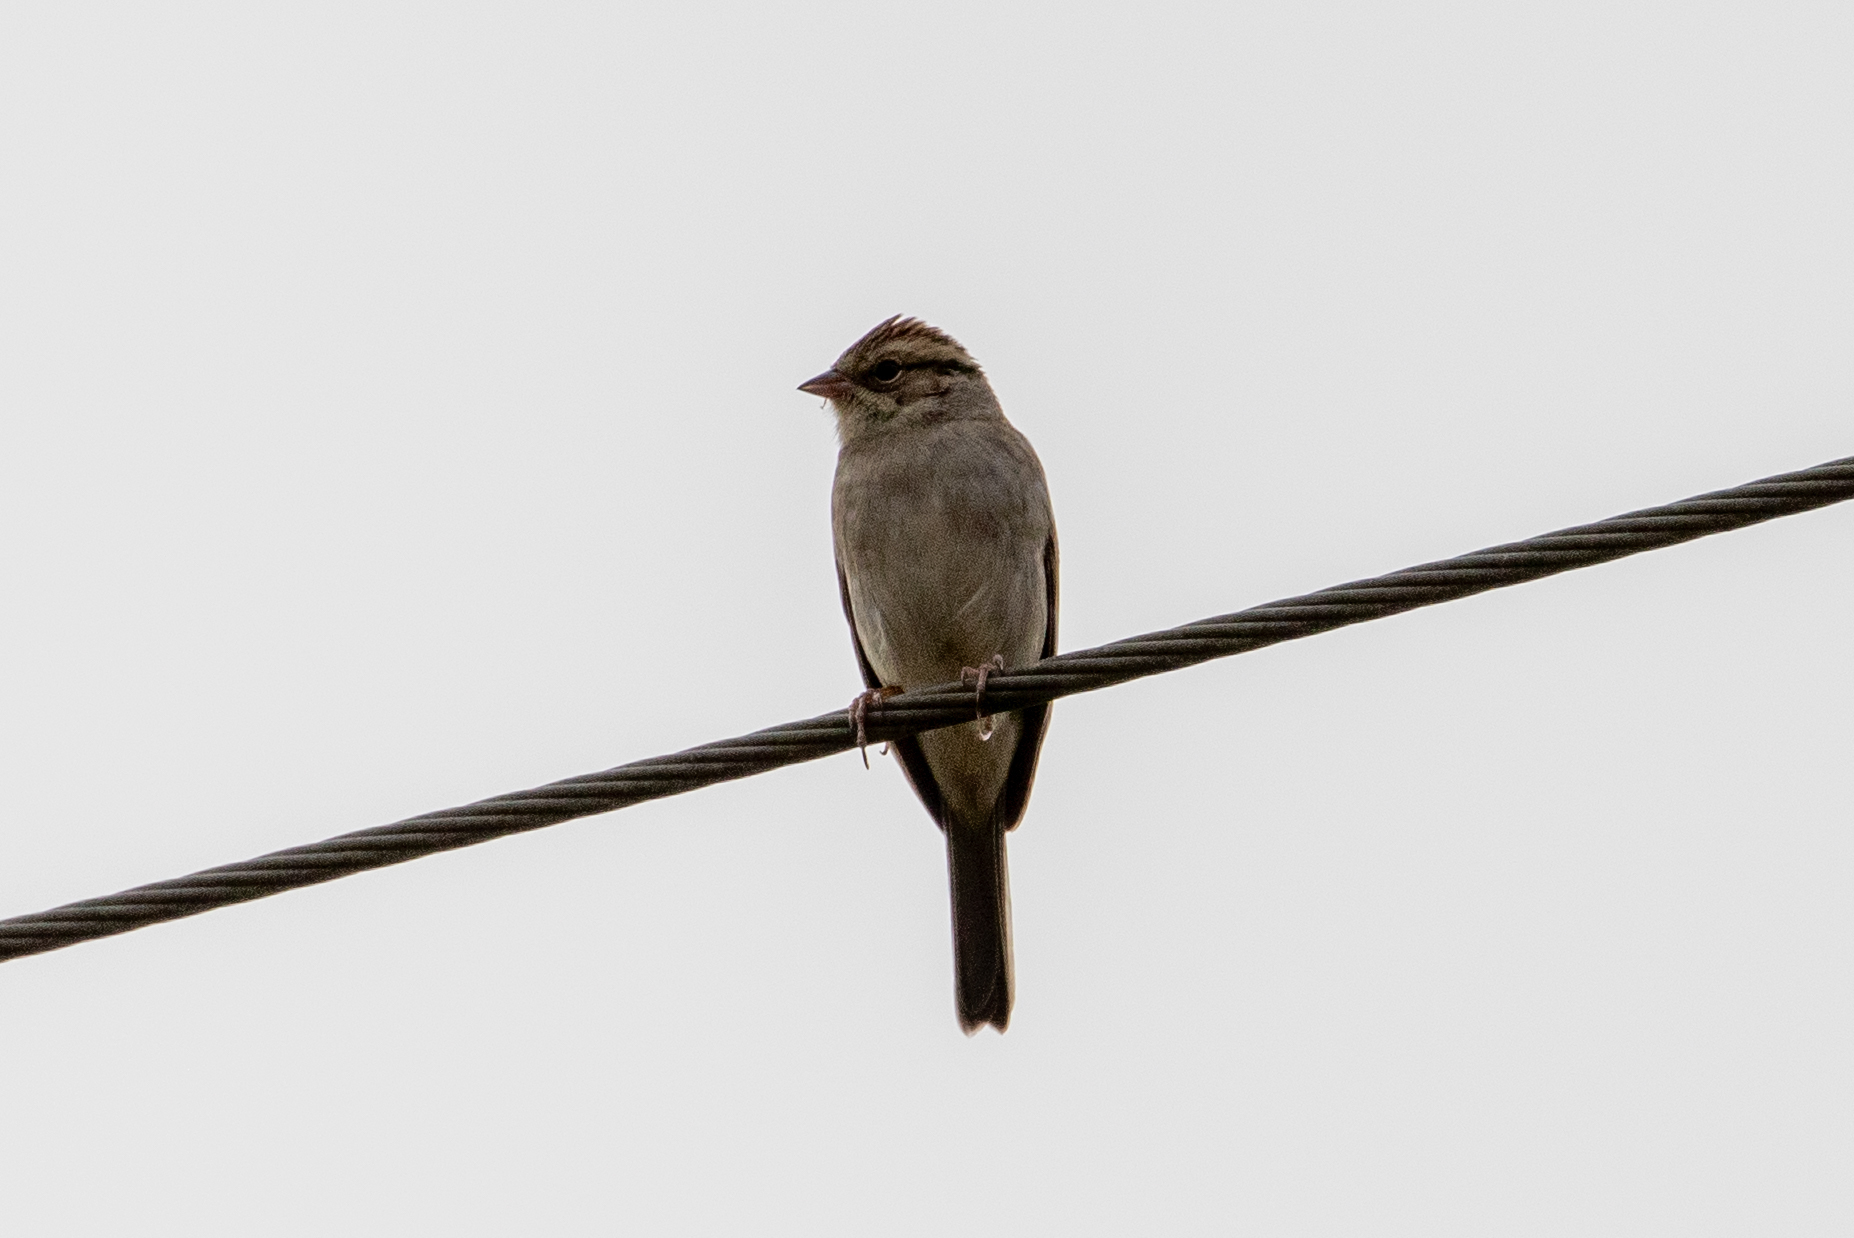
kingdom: Animalia
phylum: Chordata
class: Aves
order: Passeriformes
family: Passerellidae
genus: Spizella
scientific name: Spizella passerina
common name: Chipping sparrow
